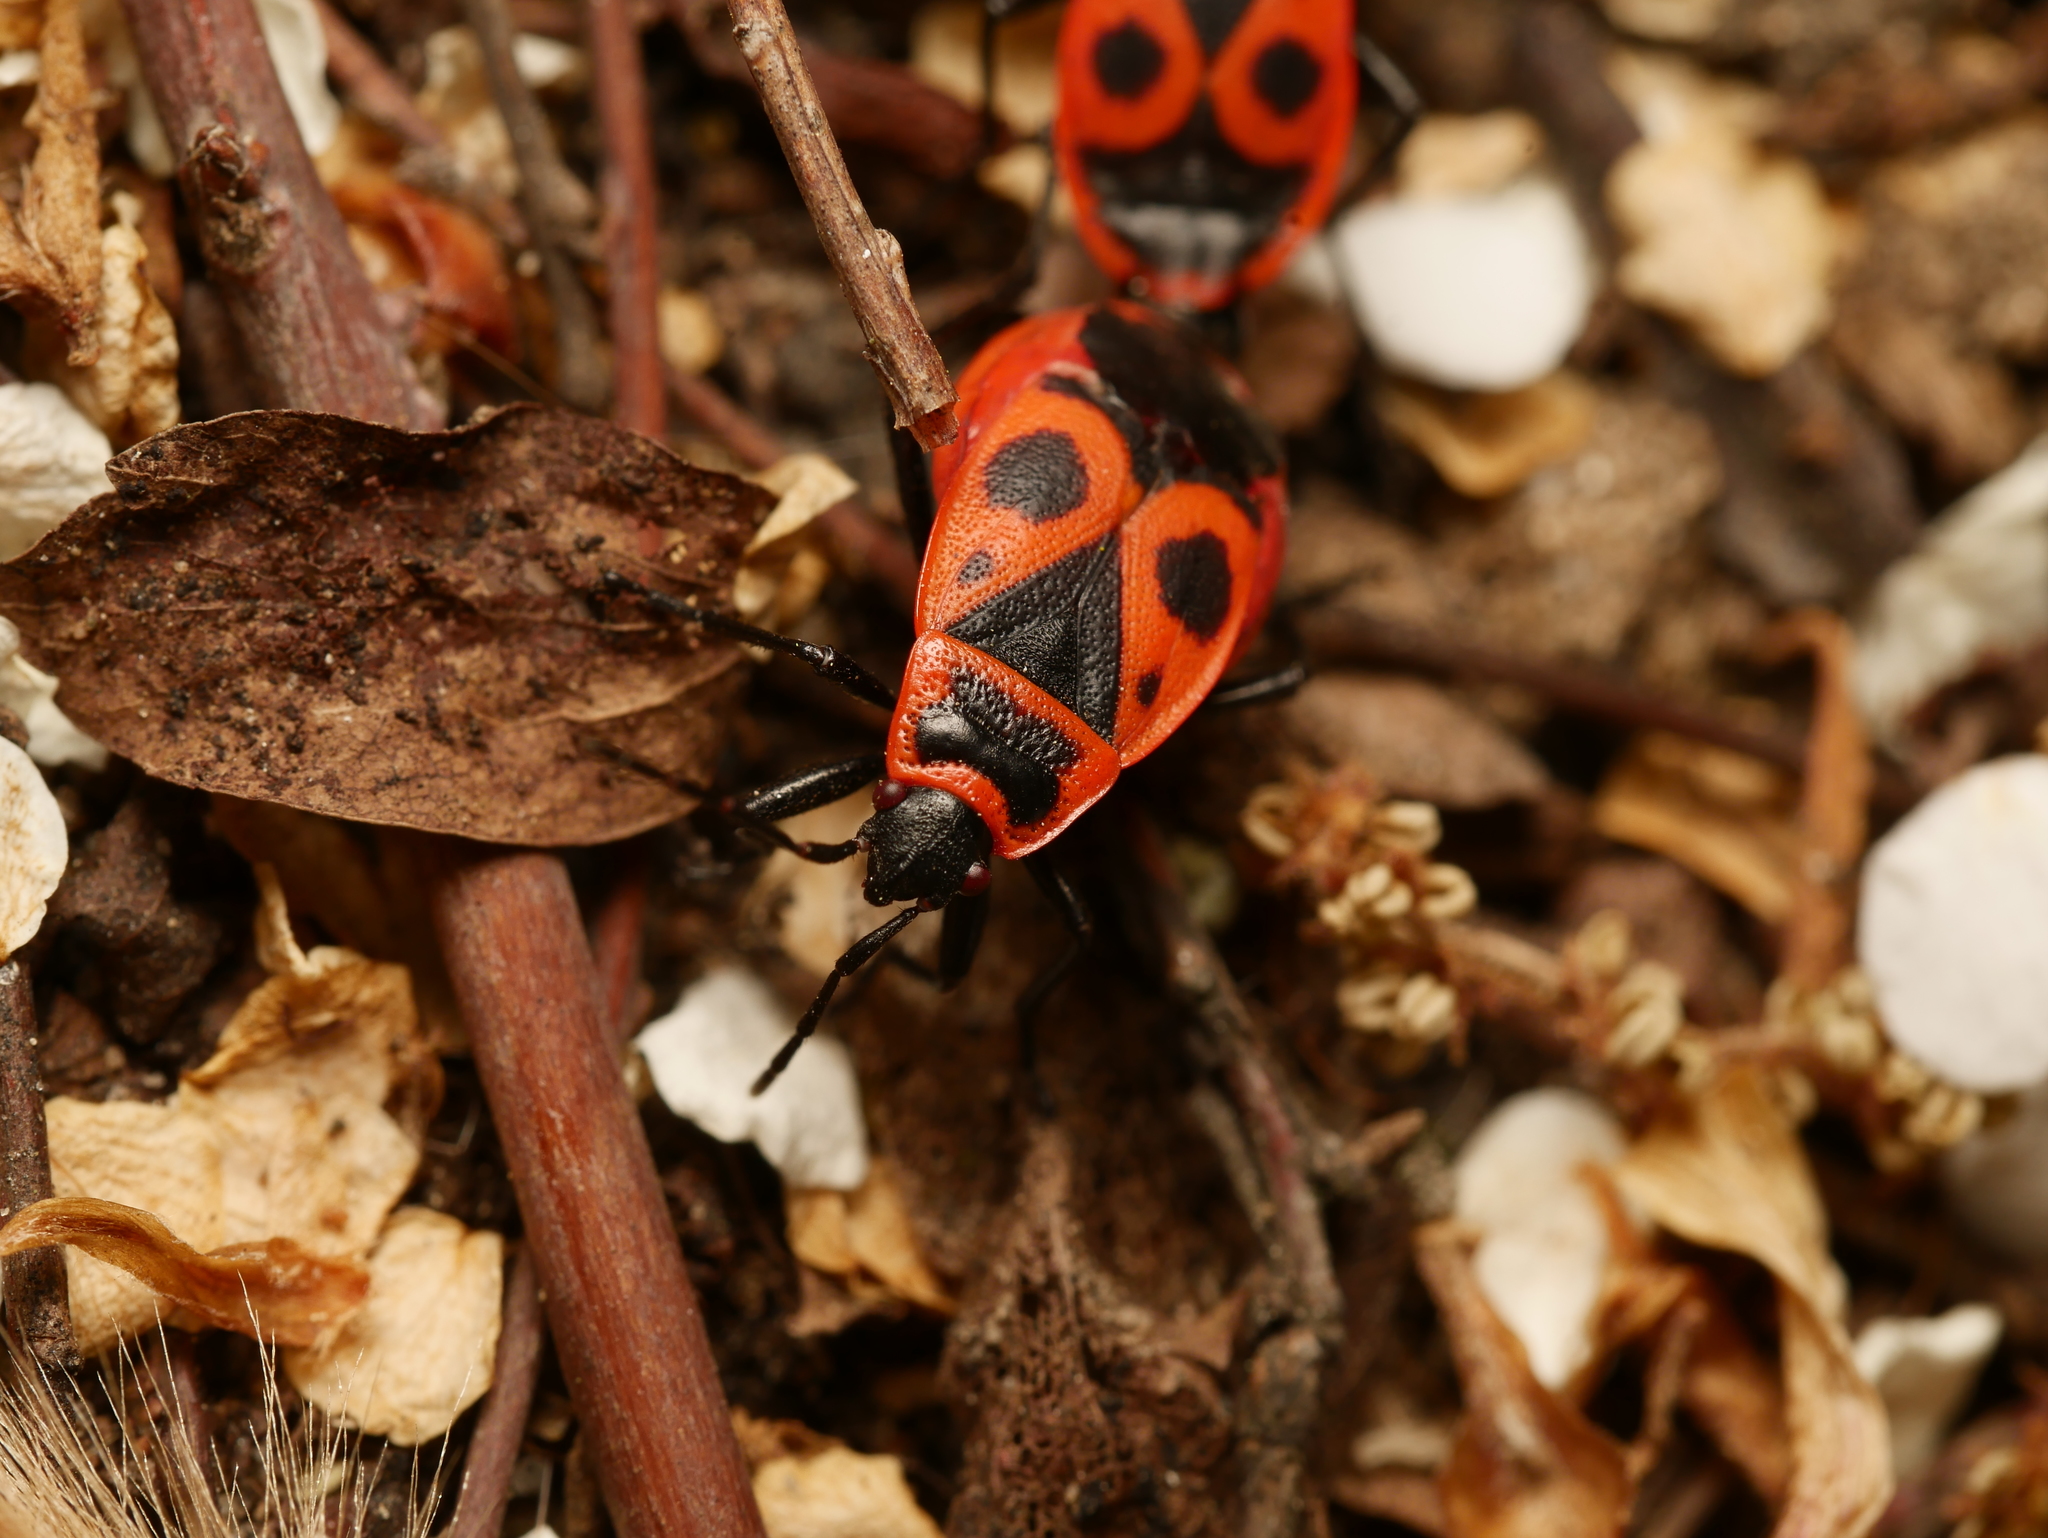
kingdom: Animalia
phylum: Arthropoda
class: Insecta
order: Hemiptera
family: Pyrrhocoridae
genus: Pyrrhocoris
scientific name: Pyrrhocoris apterus
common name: Firebug
